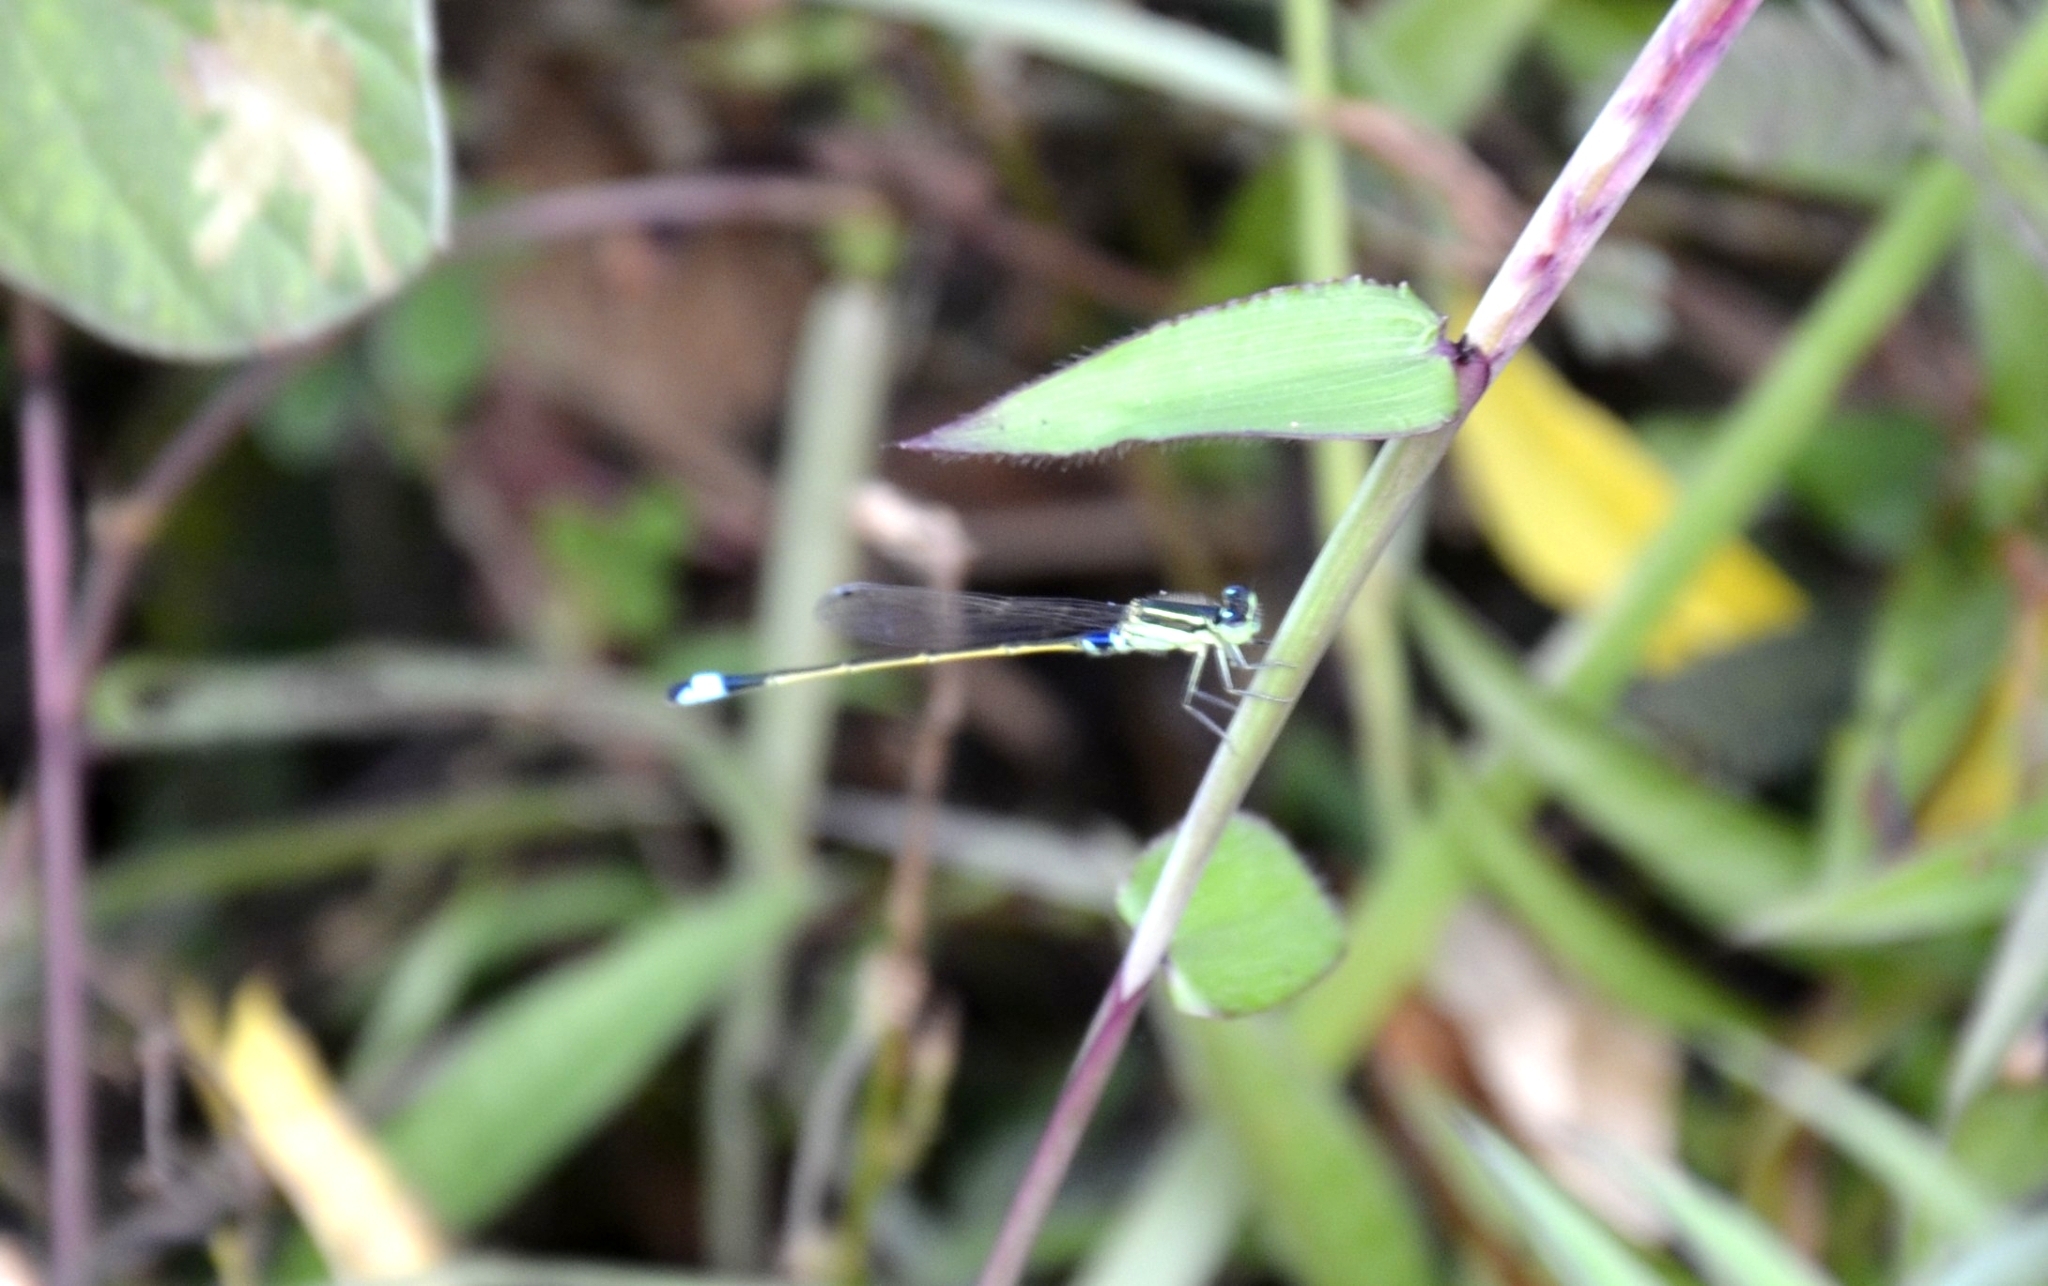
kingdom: Animalia
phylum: Arthropoda
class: Insecta
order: Odonata
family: Coenagrionidae
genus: Ischnura
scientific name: Ischnura senegalensis
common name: Tropical bluetail
